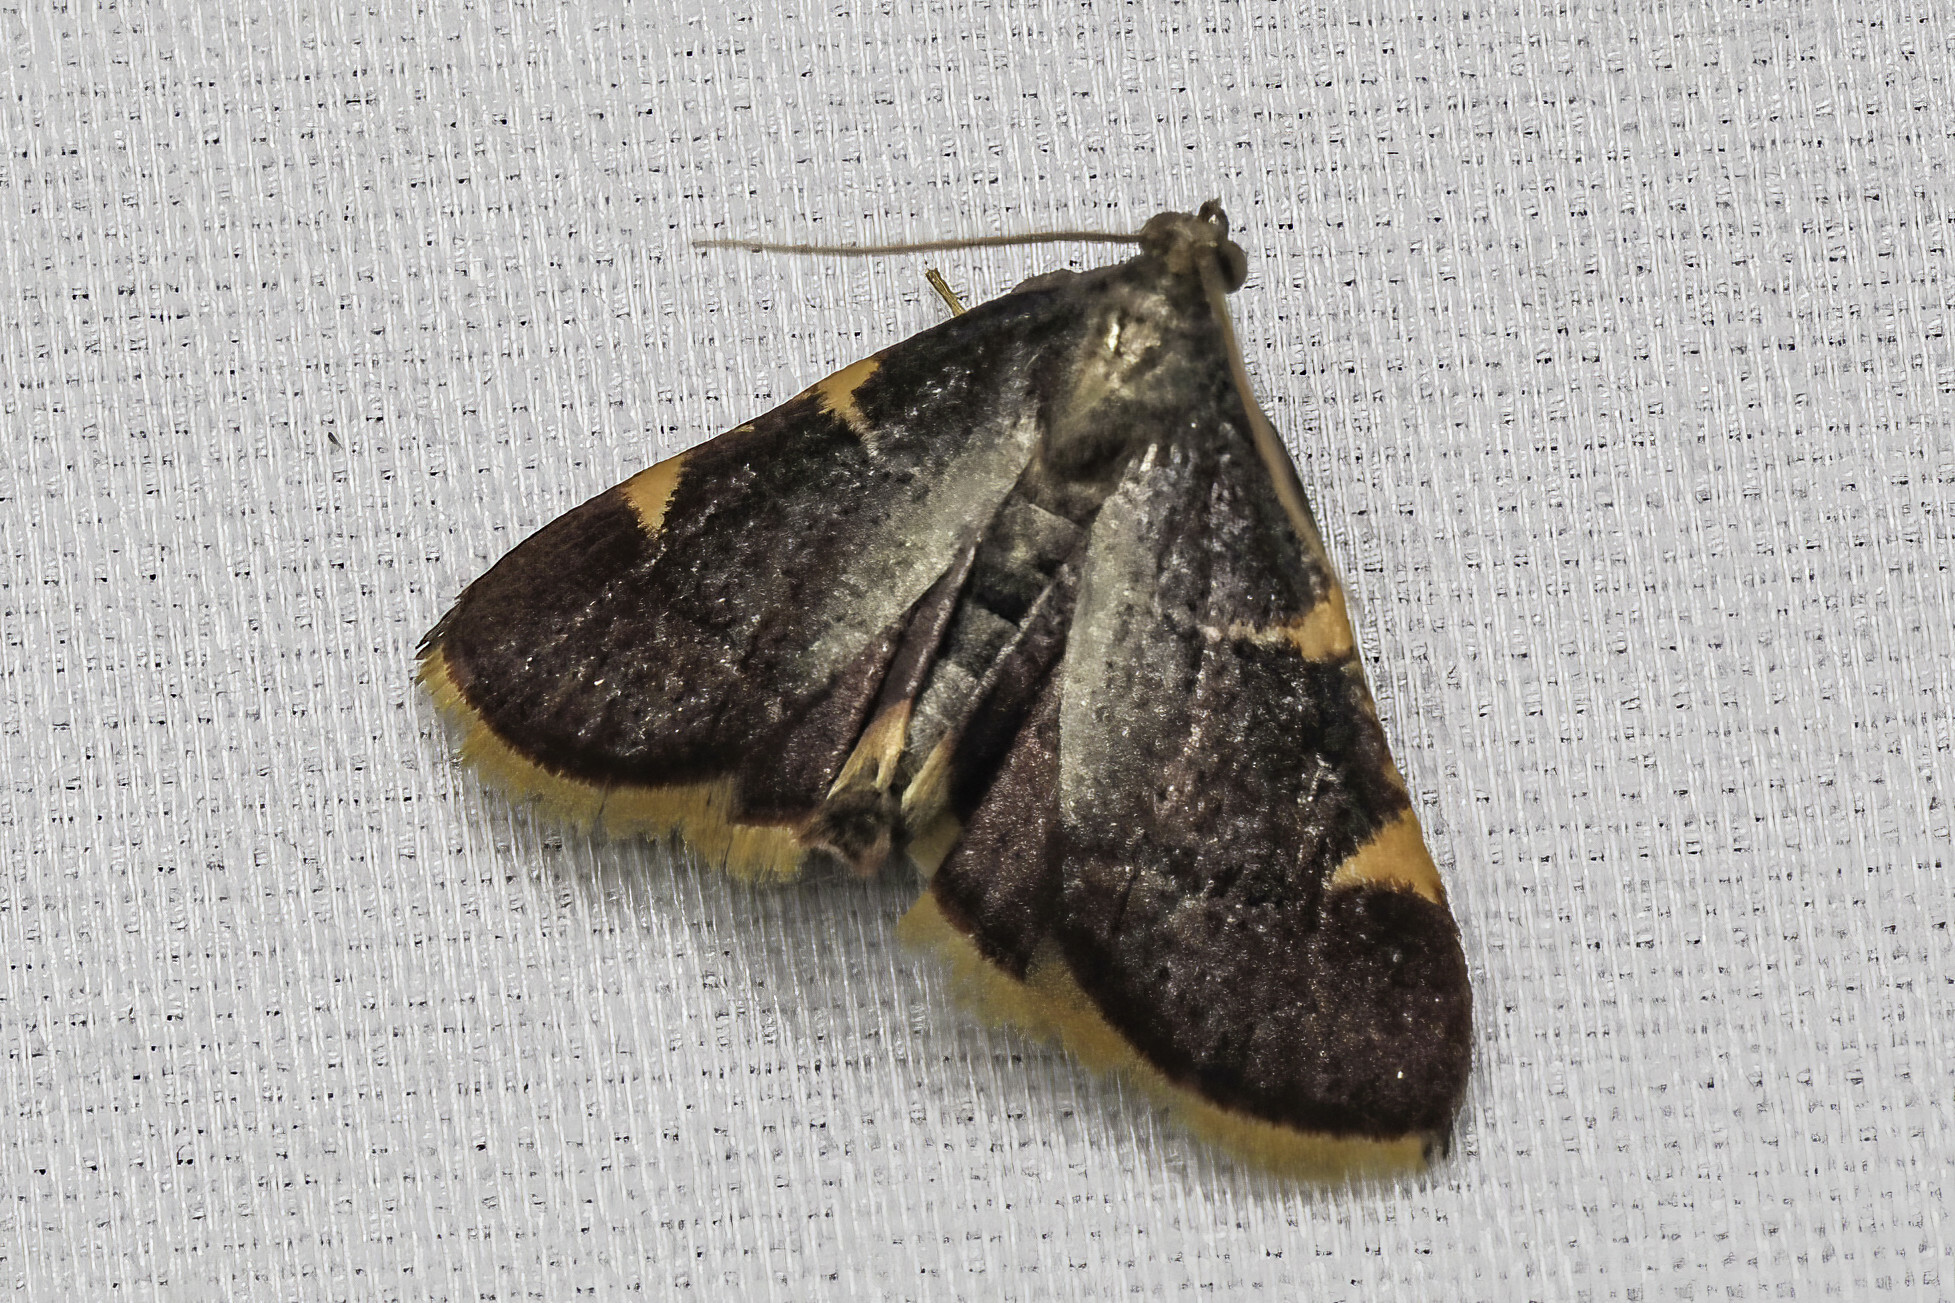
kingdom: Animalia
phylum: Arthropoda
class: Insecta
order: Lepidoptera
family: Pyralidae
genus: Hypsopygia
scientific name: Hypsopygia olinalis
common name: Yellow-fringed dolichomia moth
